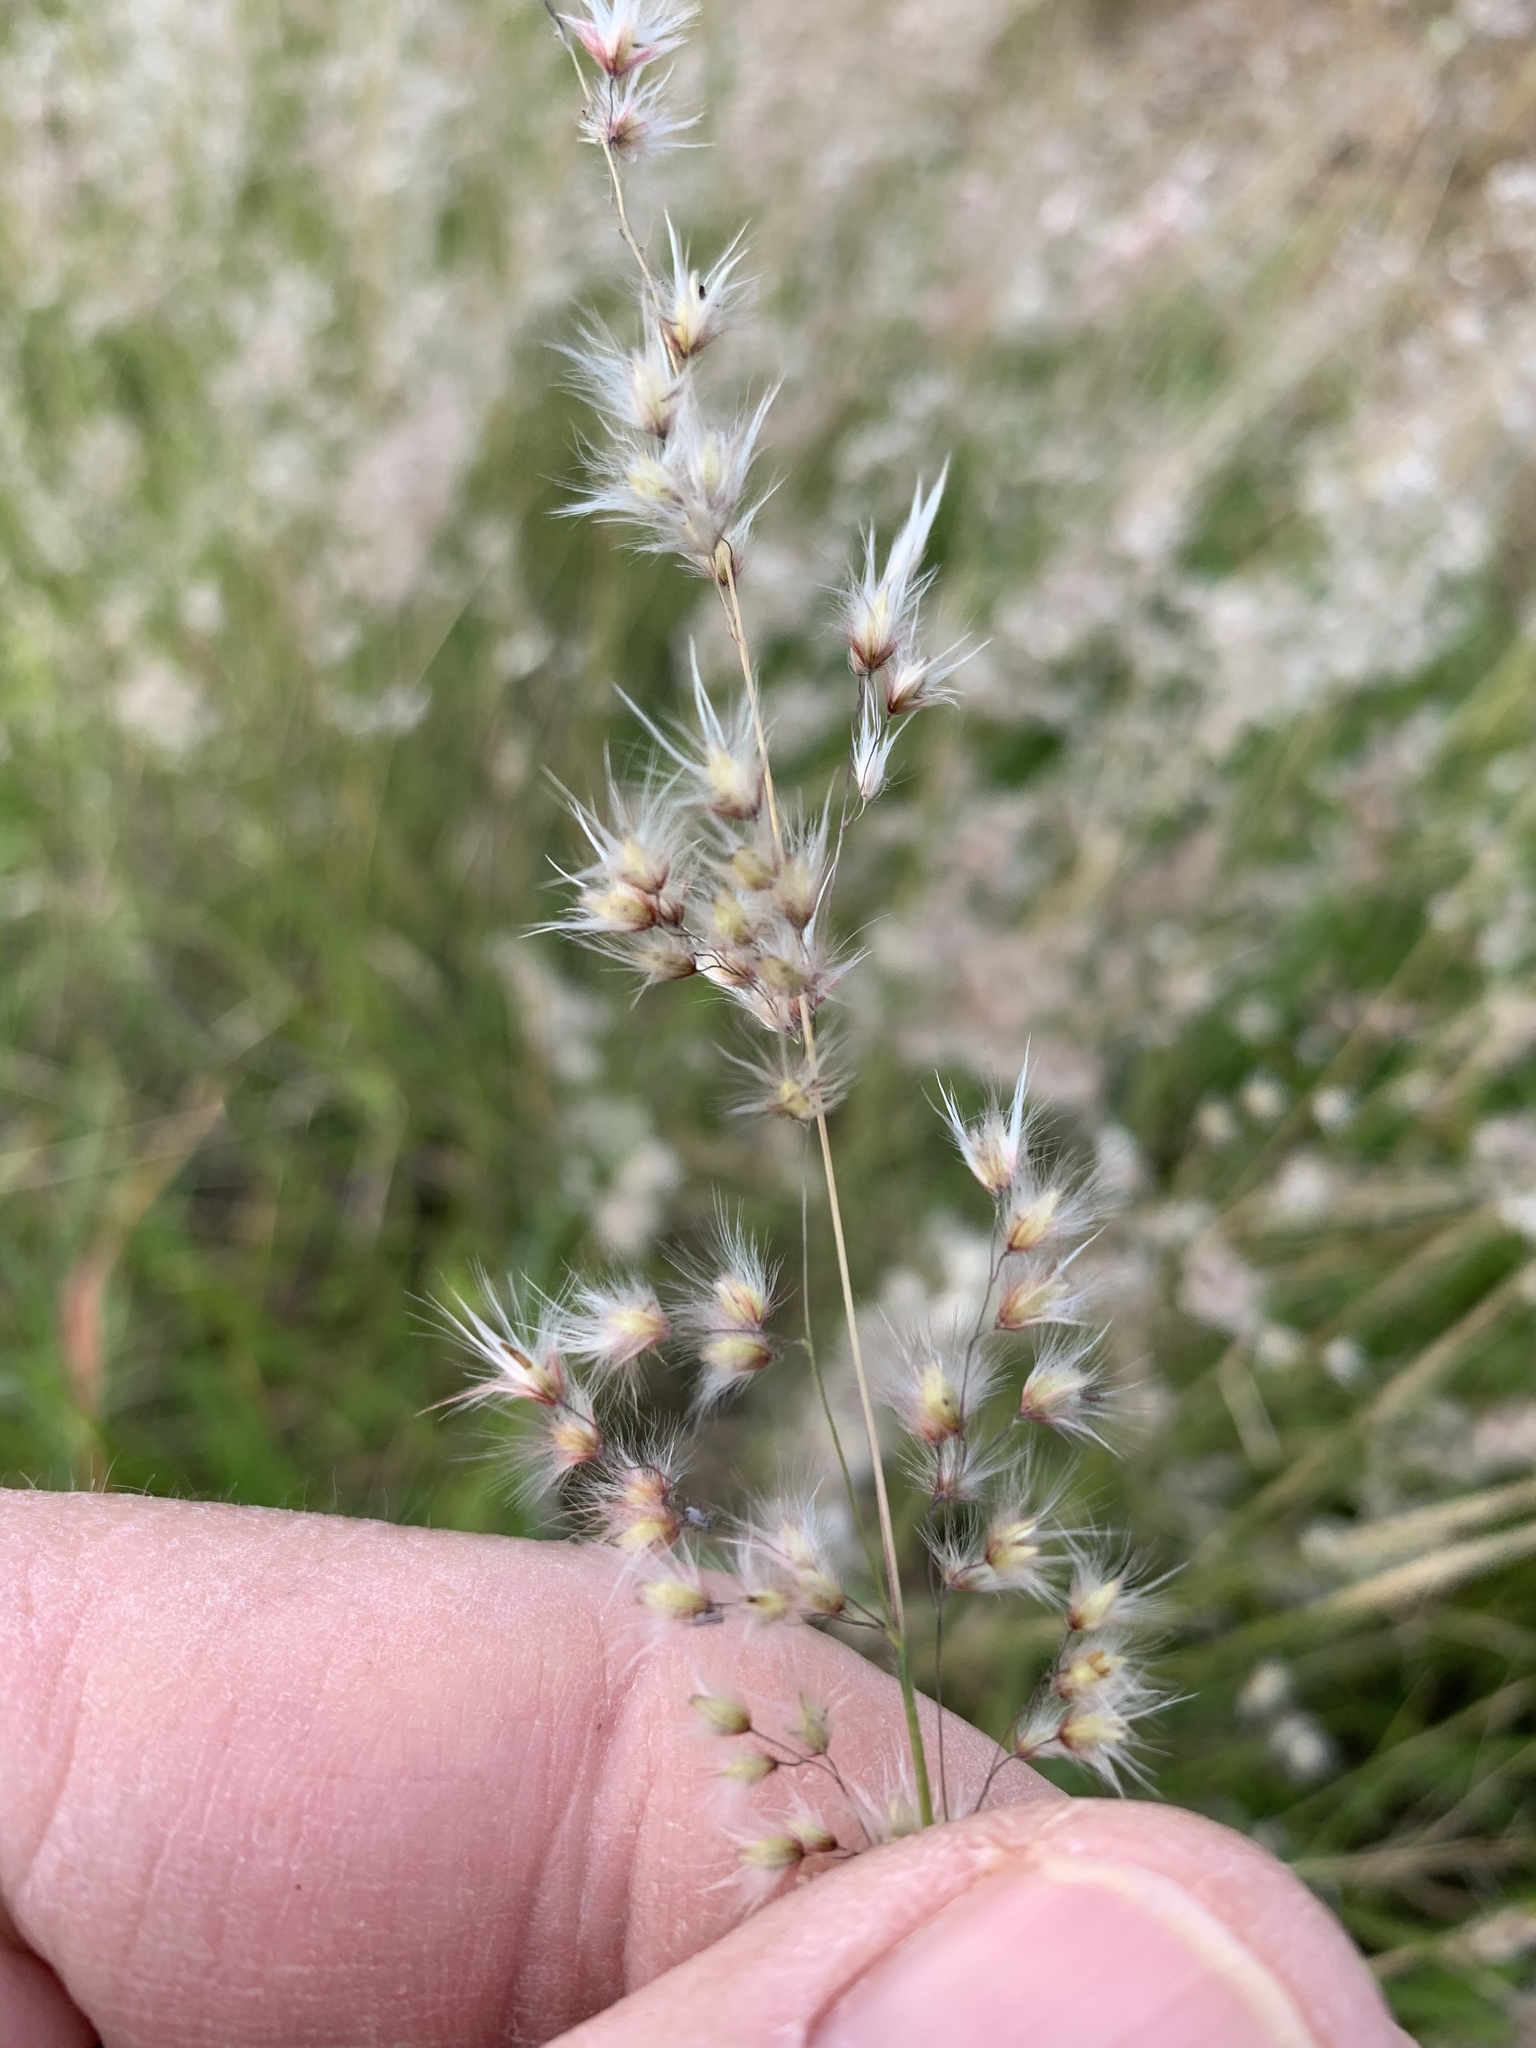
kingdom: Plantae
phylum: Tracheophyta
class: Liliopsida
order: Poales
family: Poaceae
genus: Melinis
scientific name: Melinis repens
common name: Rose natal grass
